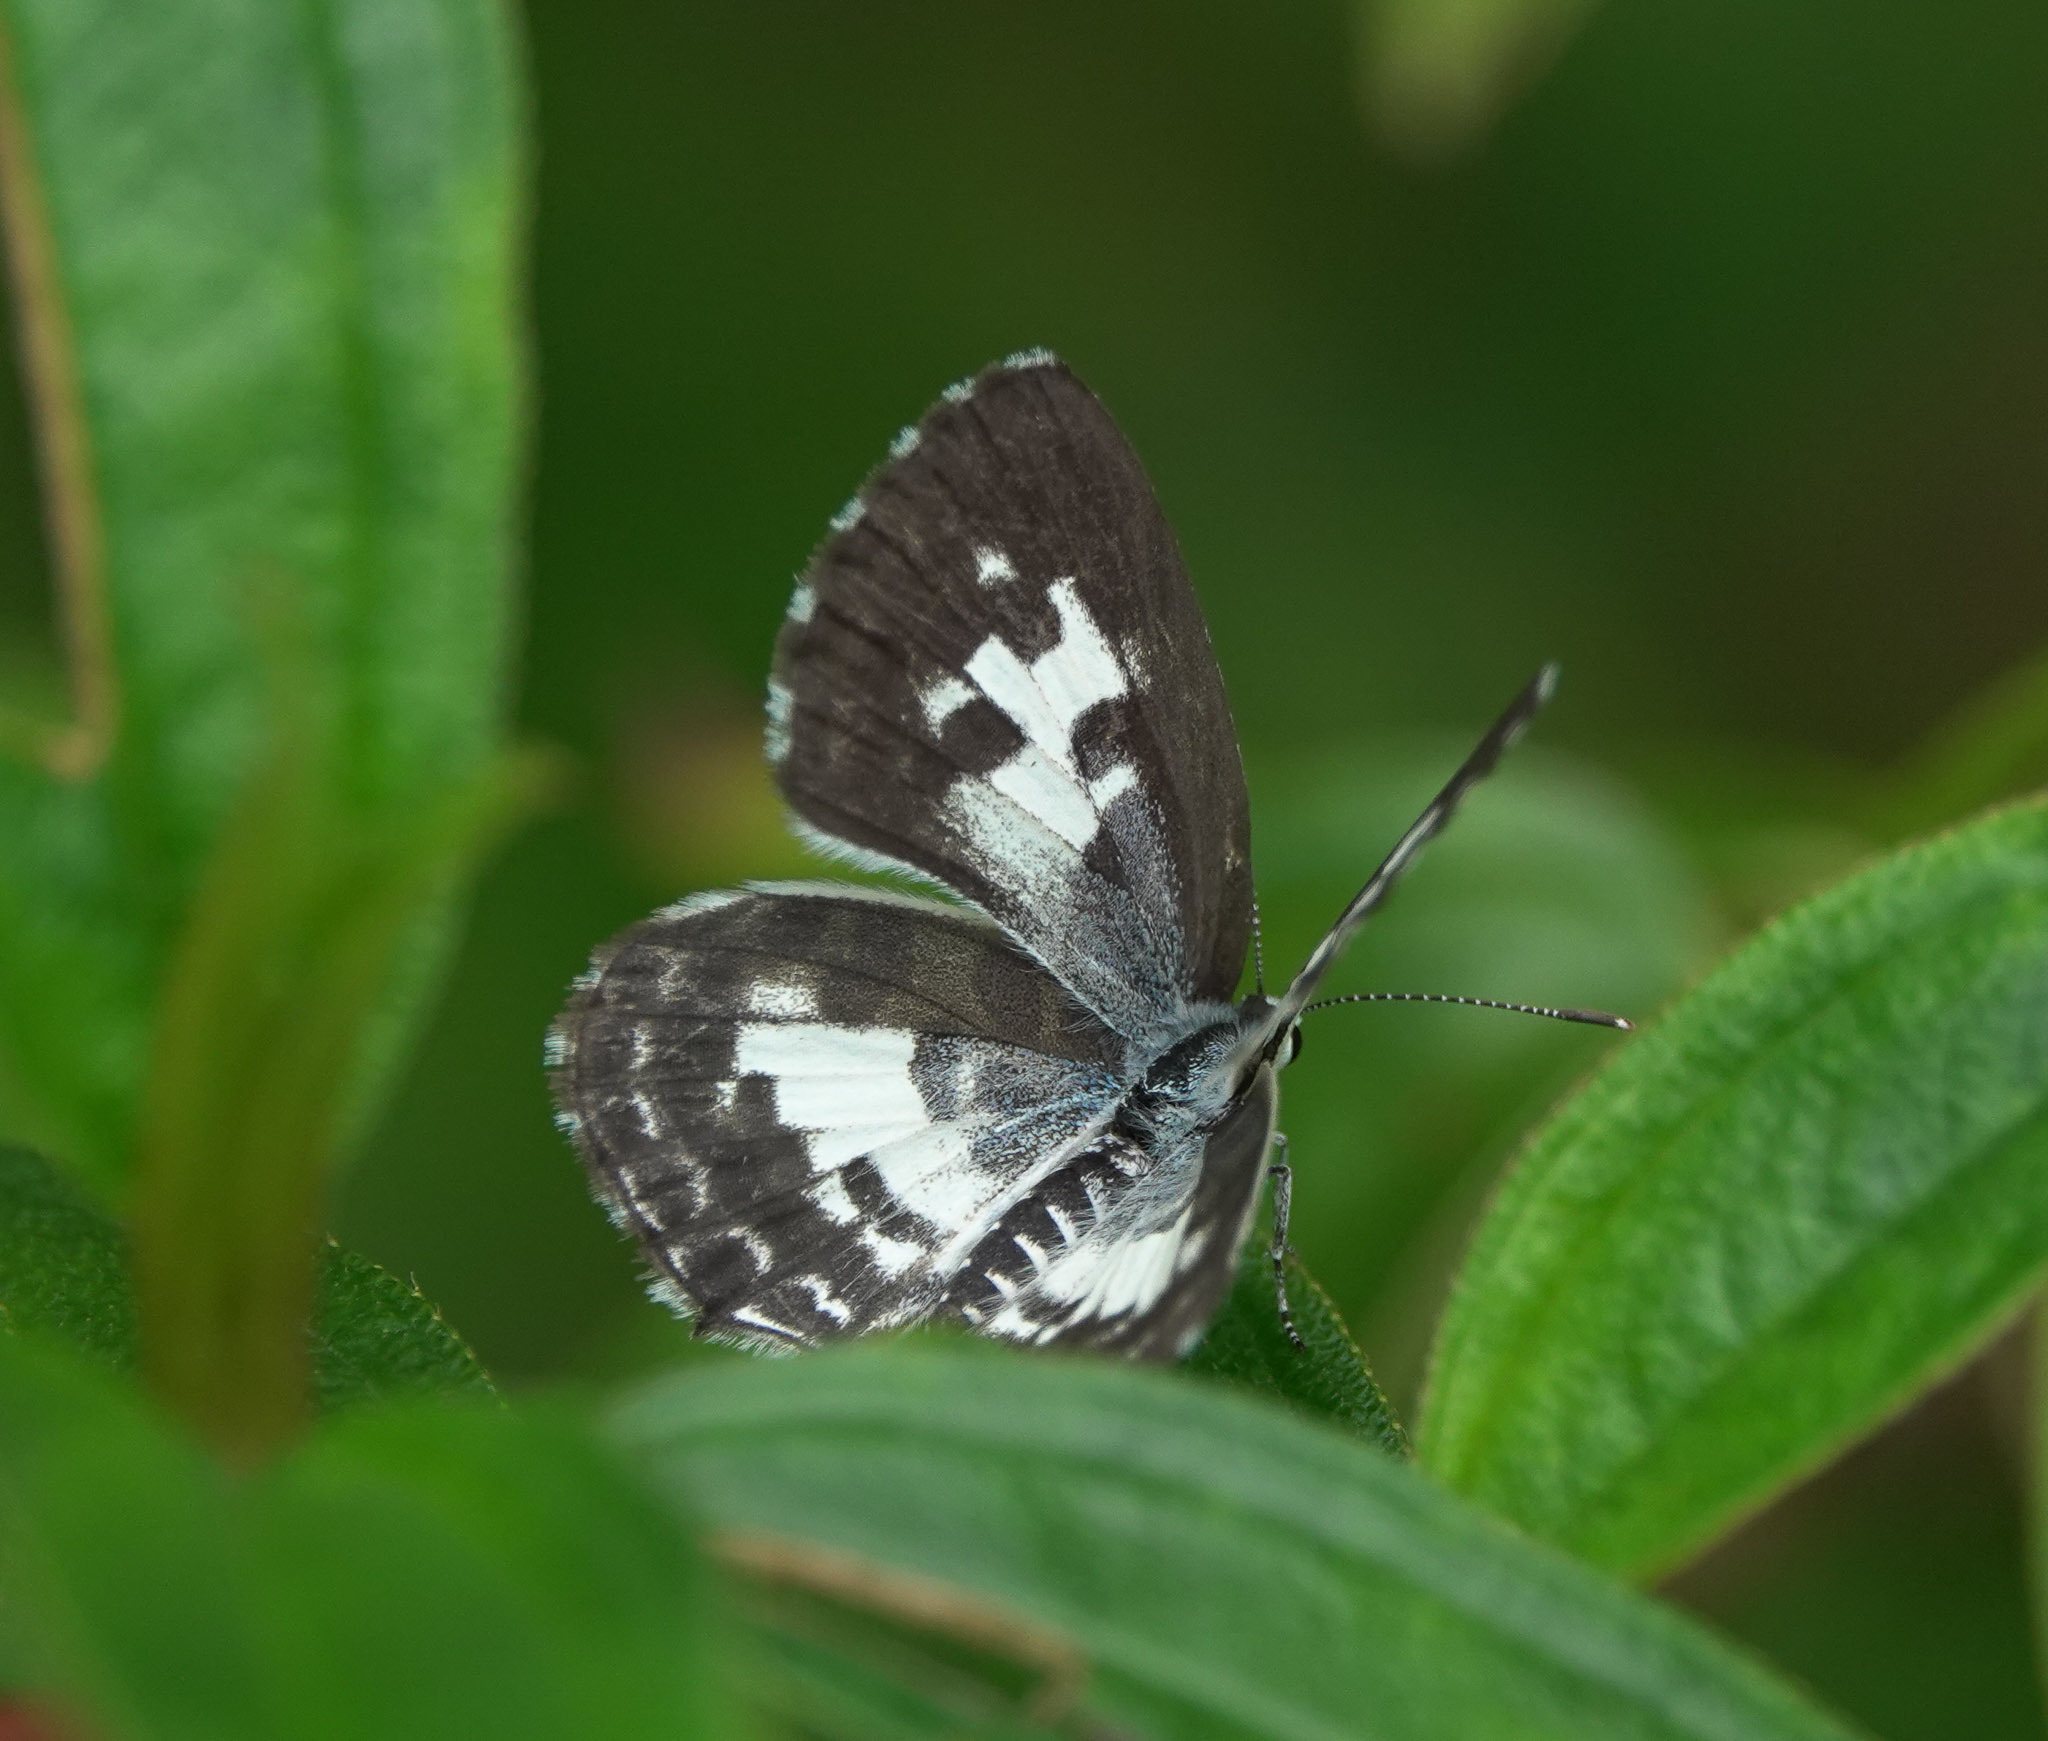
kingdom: Animalia
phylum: Arthropoda
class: Insecta
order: Lepidoptera
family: Lycaenidae
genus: Castalius
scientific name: Castalius rosimon
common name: Common pierrot
